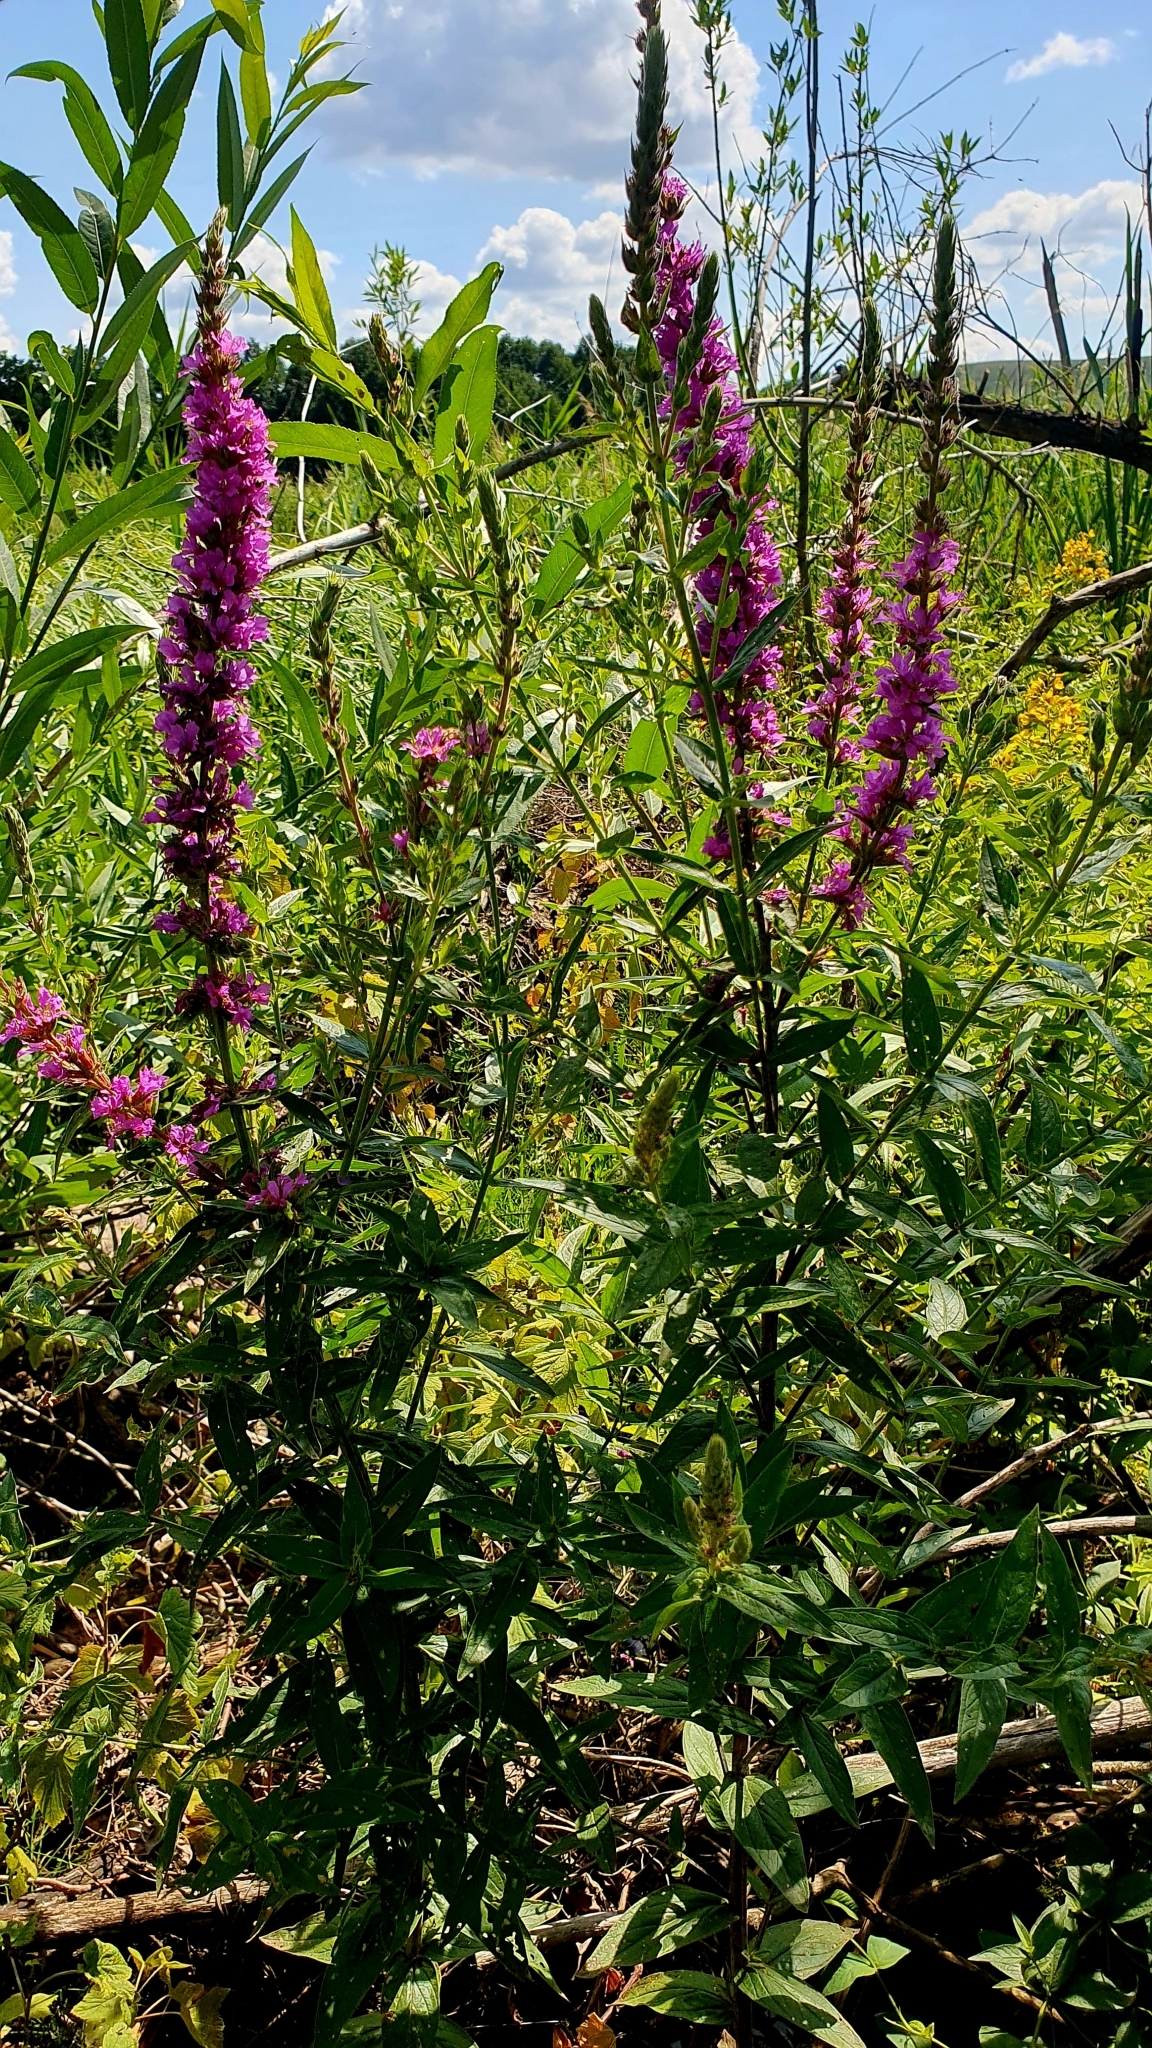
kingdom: Plantae
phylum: Tracheophyta
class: Magnoliopsida
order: Myrtales
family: Lythraceae
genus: Lythrum
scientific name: Lythrum salicaria
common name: Purple loosestrife
